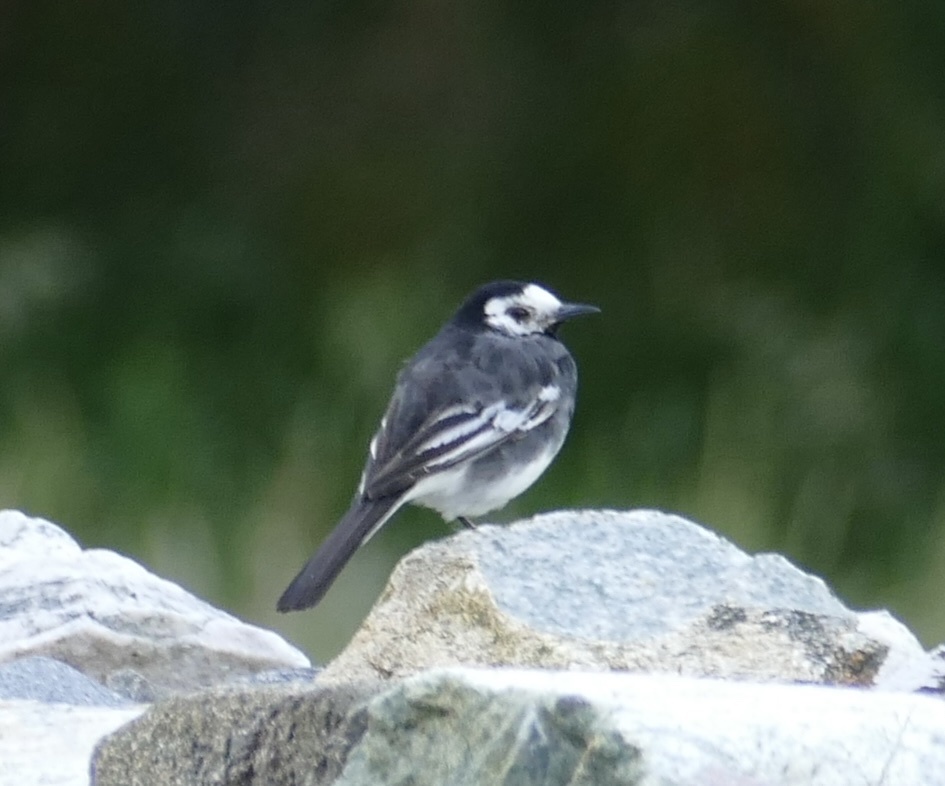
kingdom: Animalia
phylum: Chordata
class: Aves
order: Passeriformes
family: Motacillidae
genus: Motacilla
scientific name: Motacilla alba
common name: White wagtail
